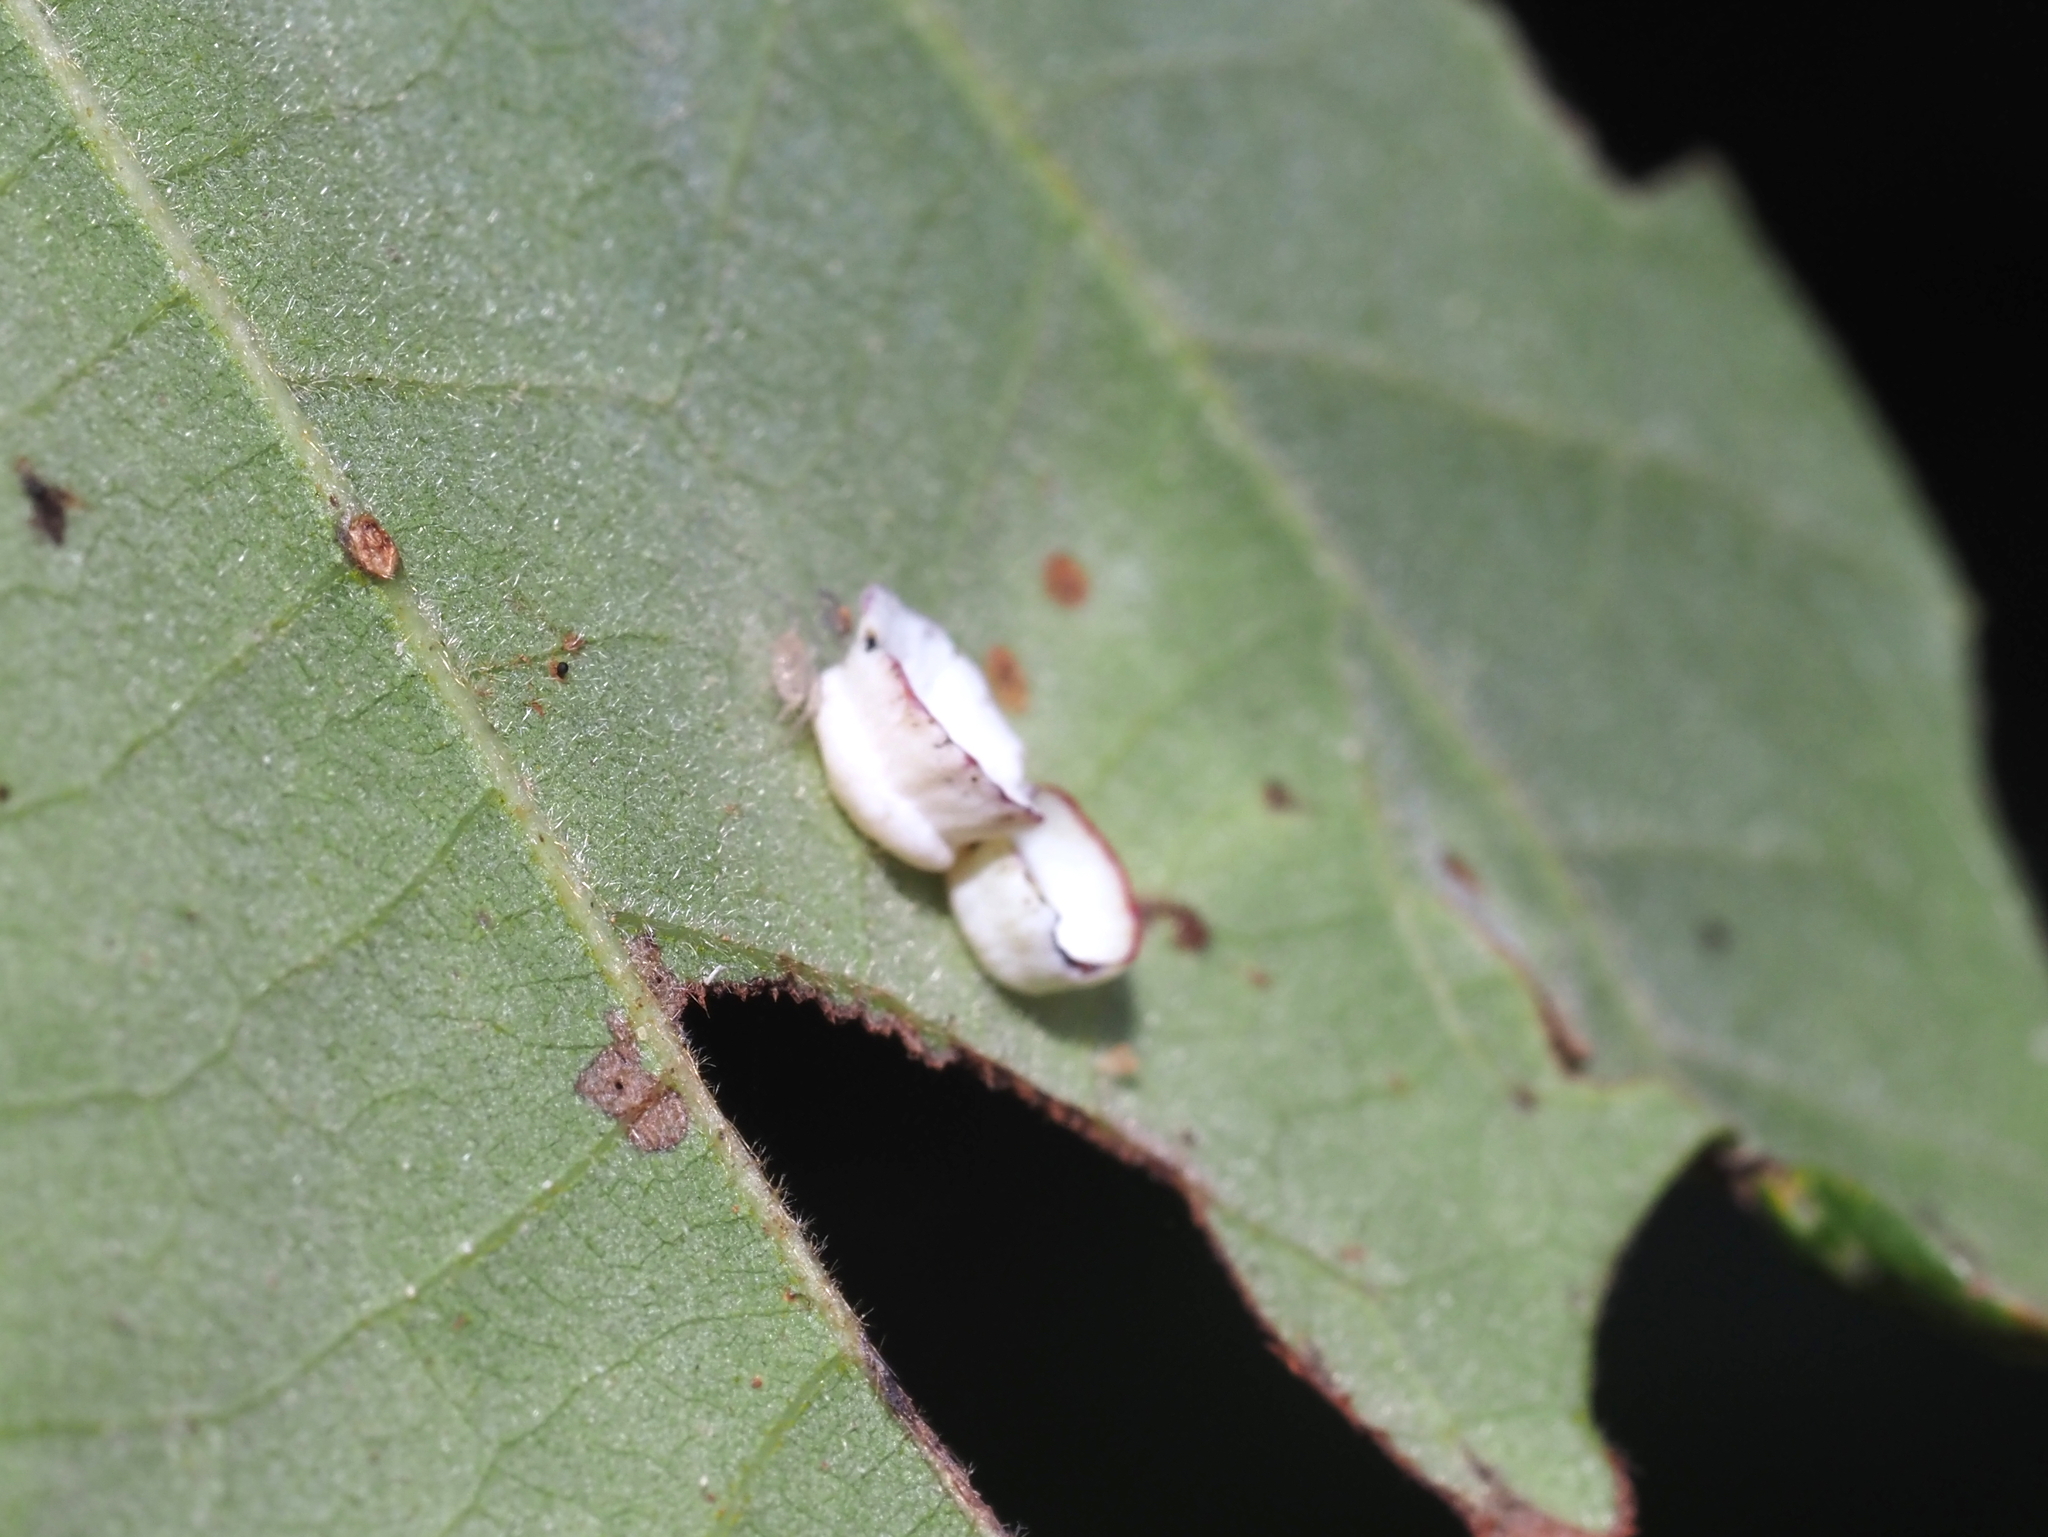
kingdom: Animalia
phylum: Arthropoda
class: Insecta
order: Hymenoptera
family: Cynipidae
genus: Phylloteras
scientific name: Phylloteras
